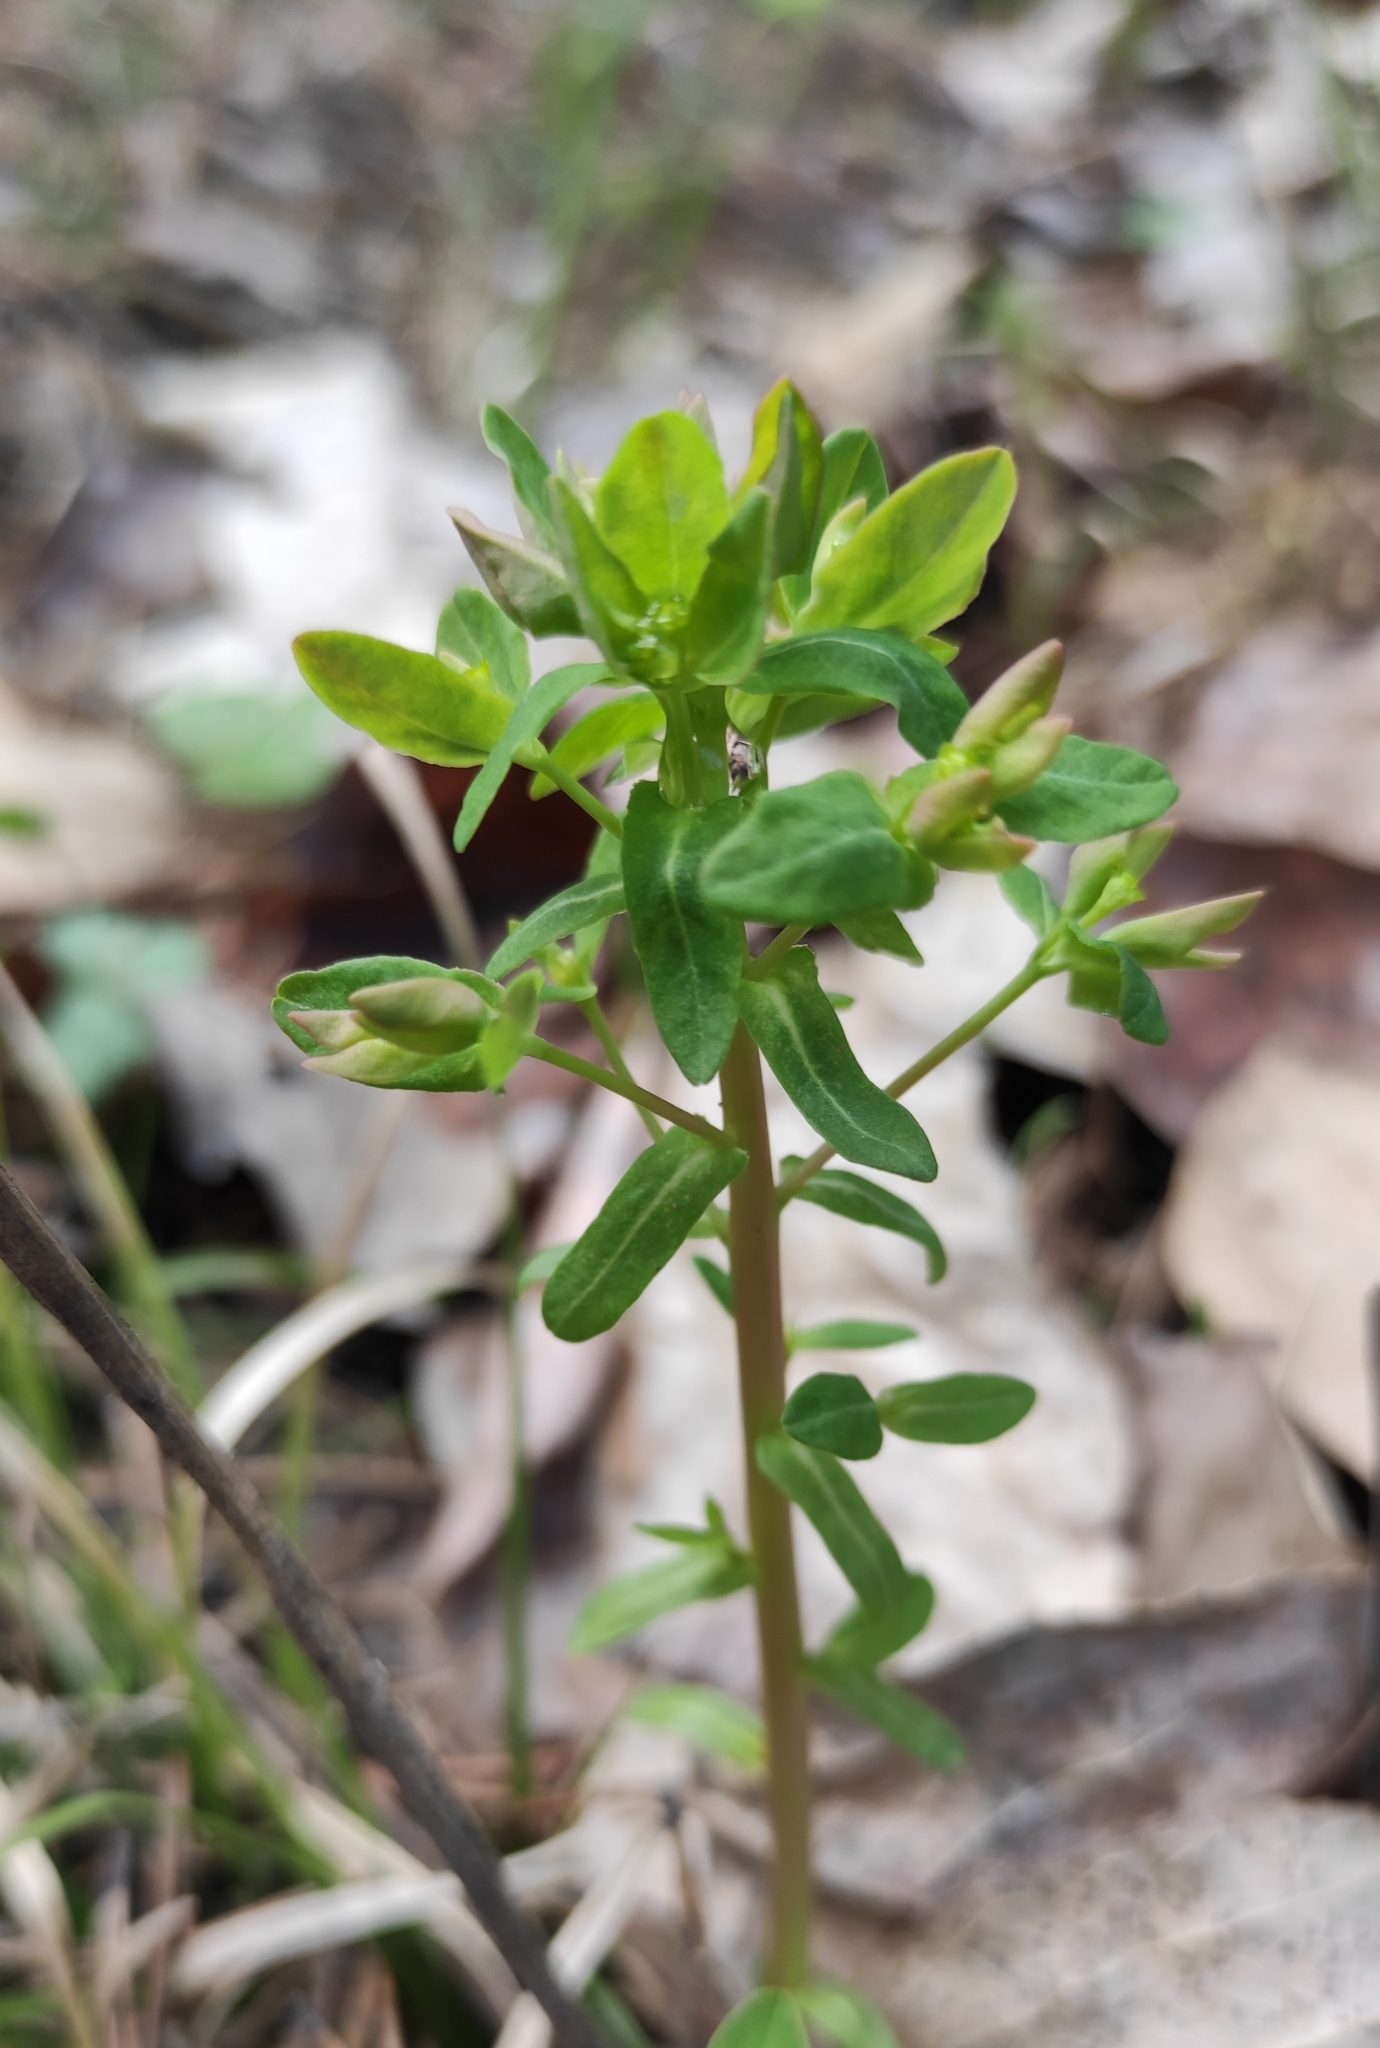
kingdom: Plantae
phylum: Tracheophyta
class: Magnoliopsida
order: Malpighiales
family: Euphorbiaceae
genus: Euphorbia
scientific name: Euphorbia jenisseiensis
